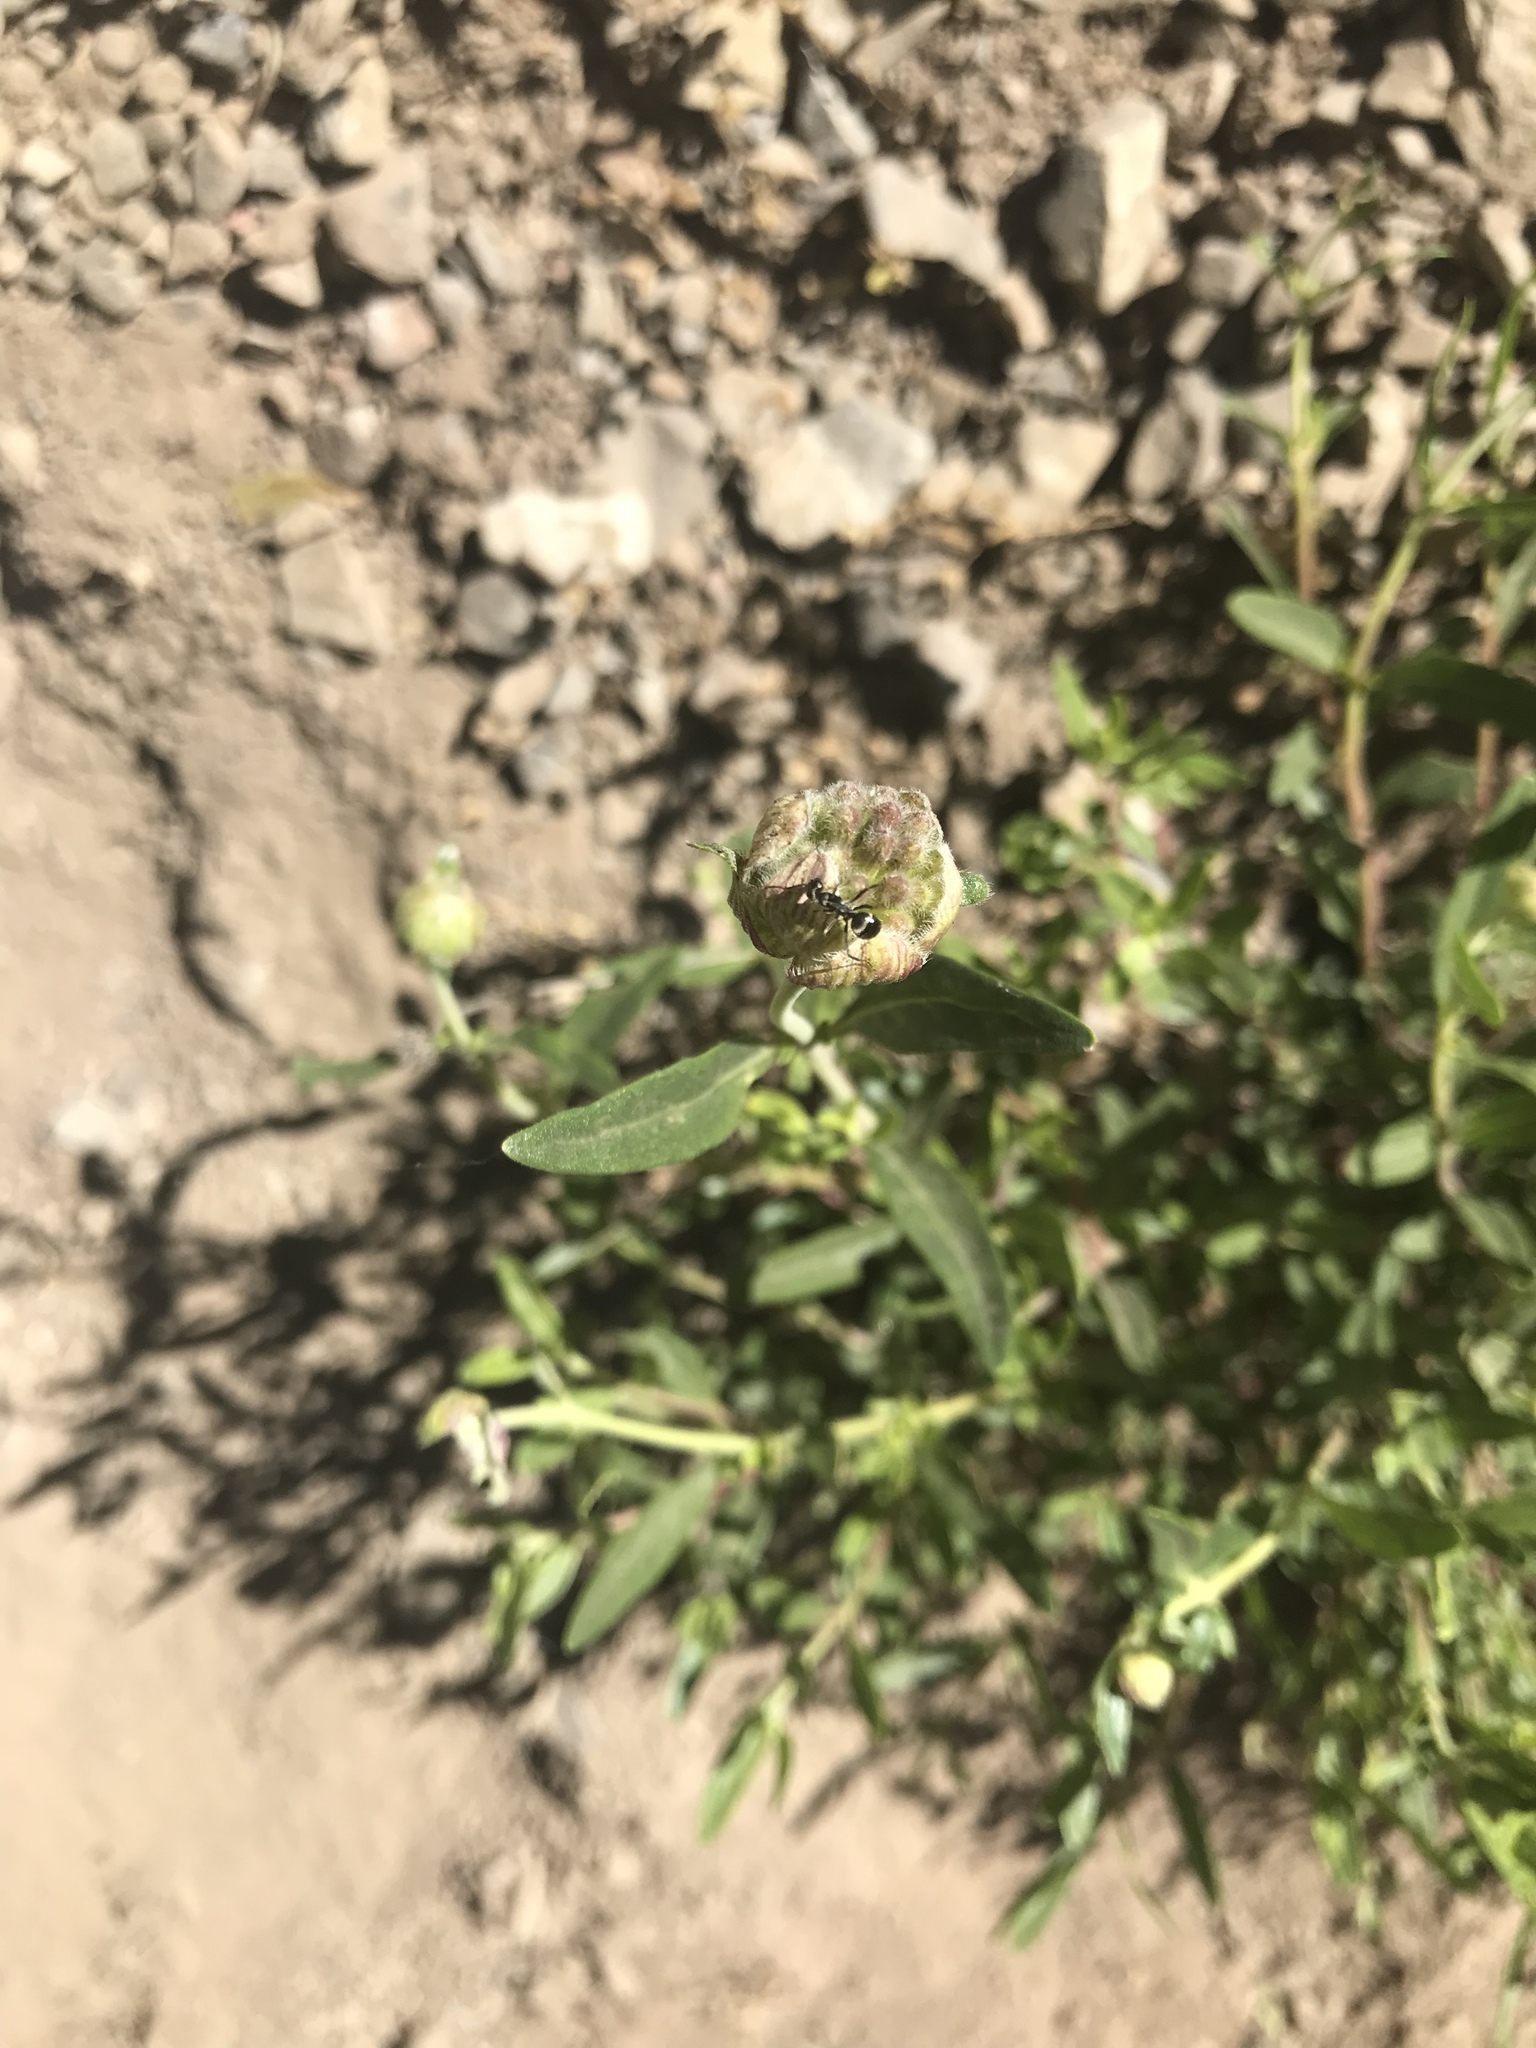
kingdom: Plantae
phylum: Tracheophyta
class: Magnoliopsida
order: Lamiales
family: Lamiaceae
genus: Monardella
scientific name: Monardella odoratissima
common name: Pacific monardella
